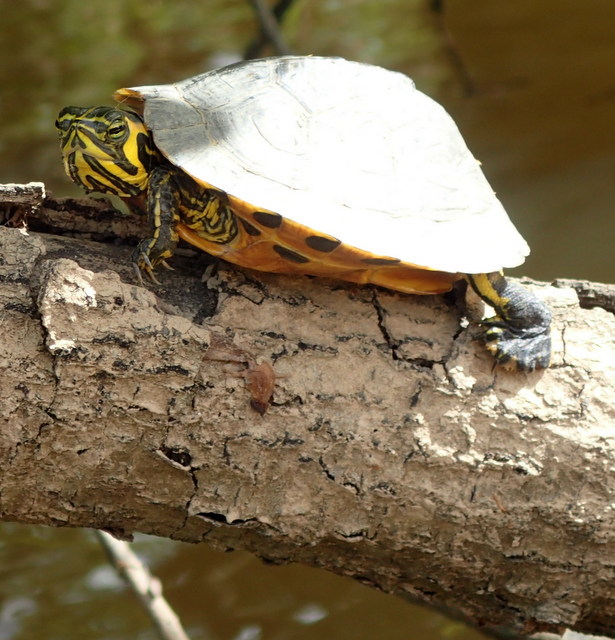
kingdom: Animalia
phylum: Chordata
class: Testudines
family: Emydidae
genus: Trachemys
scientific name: Trachemys scripta
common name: Slider
